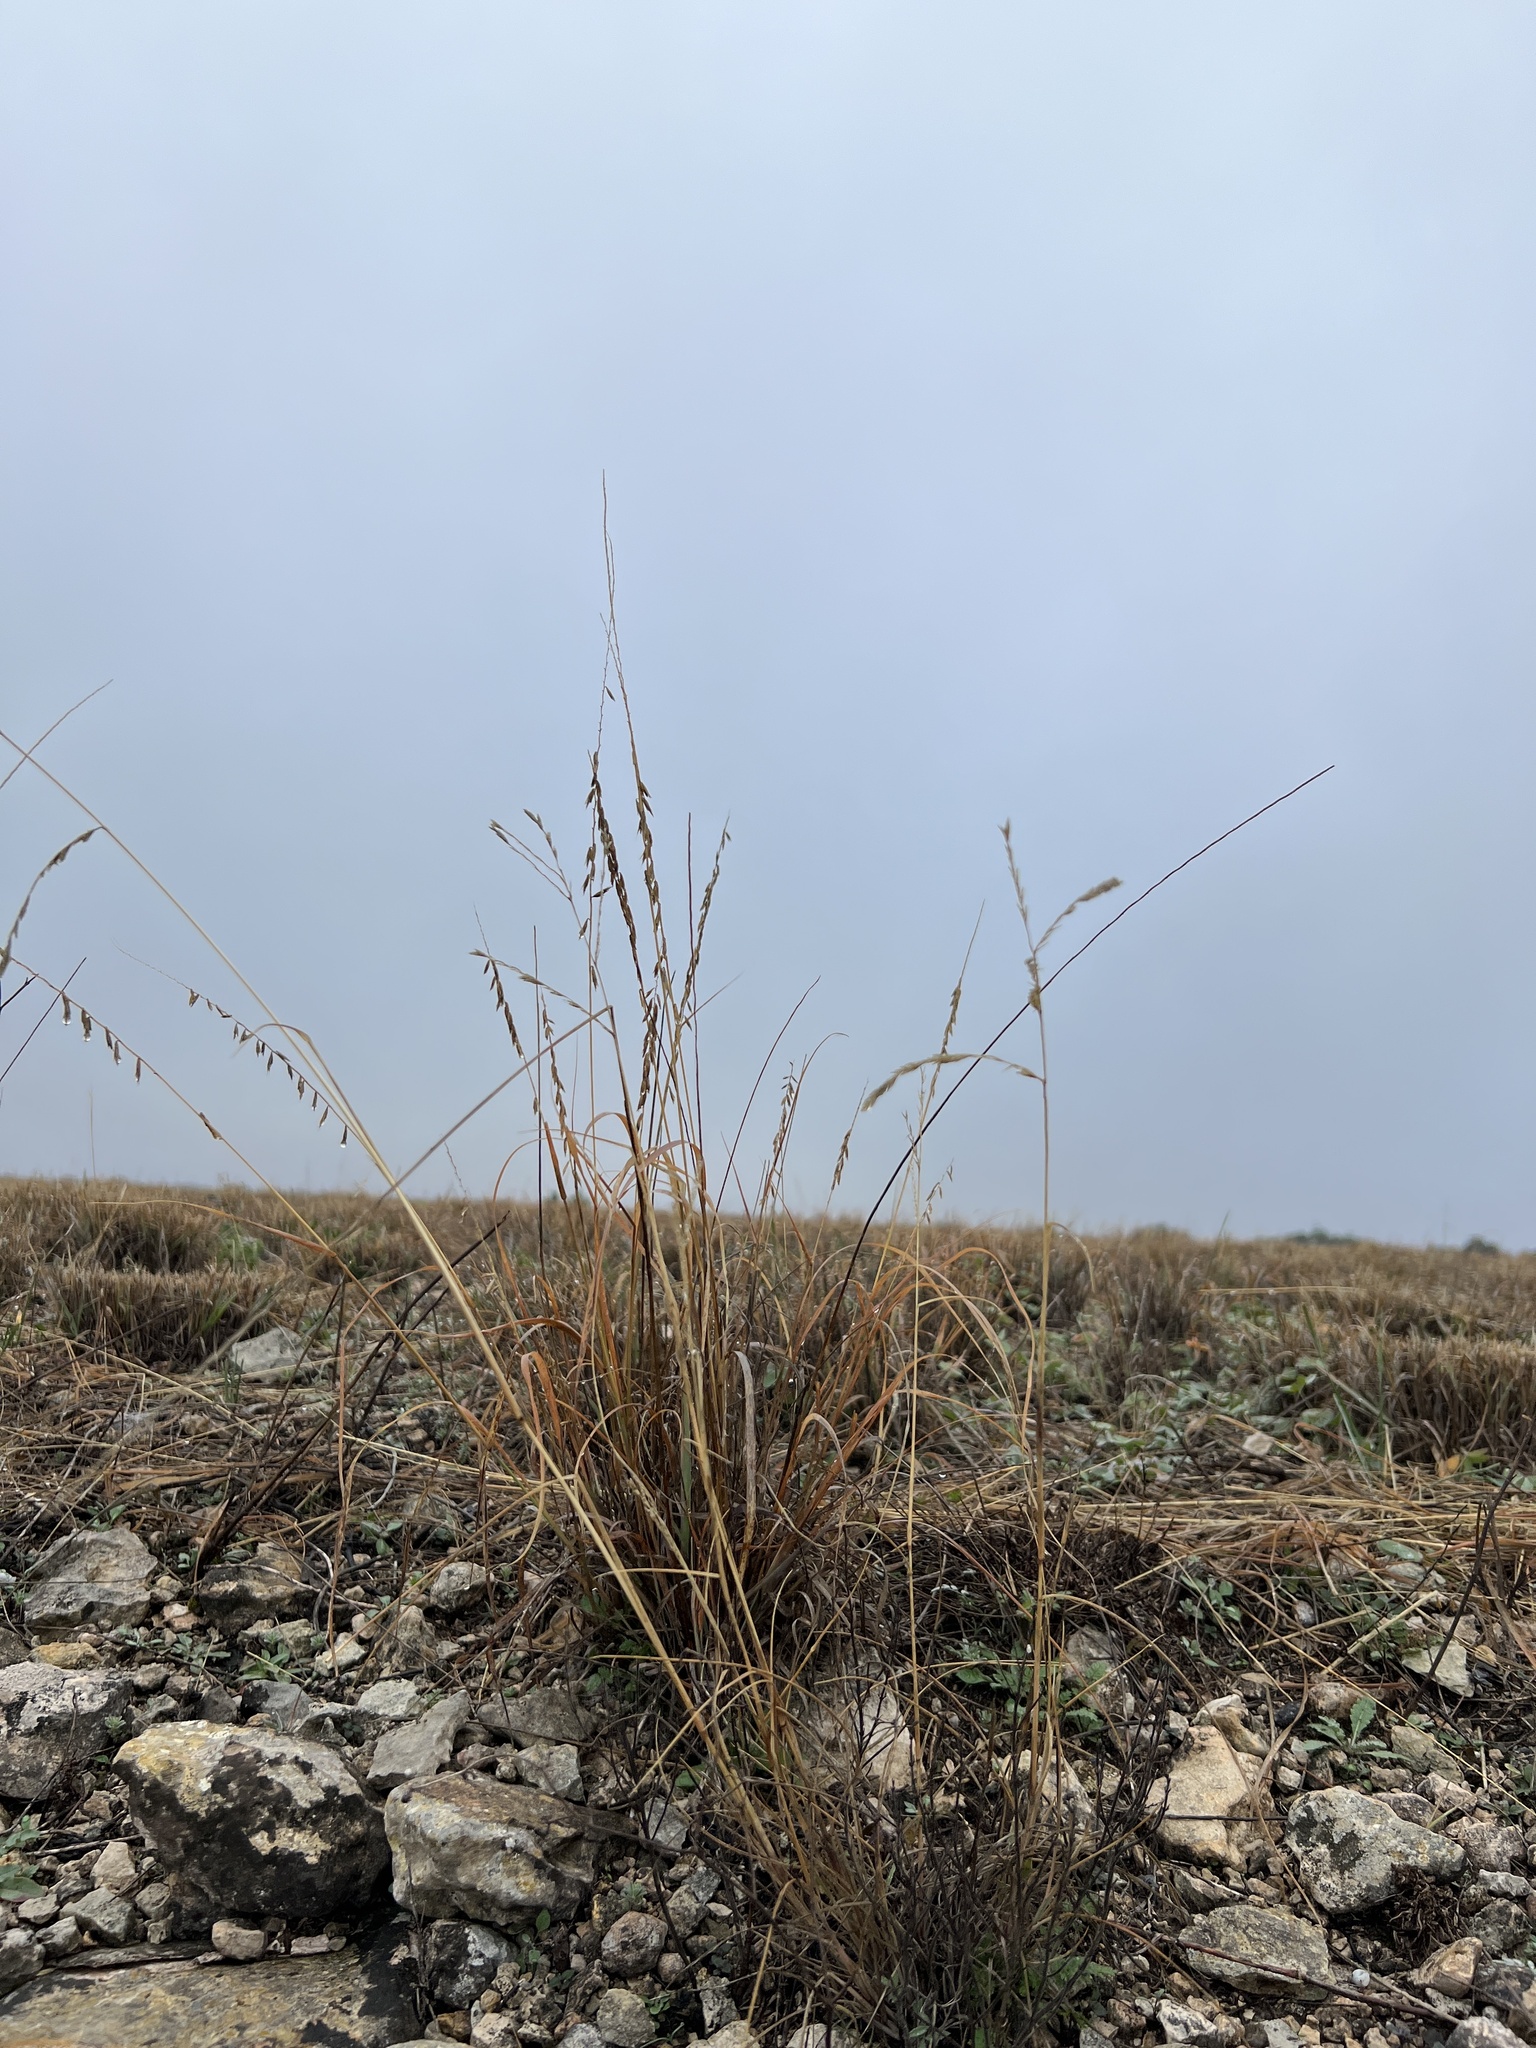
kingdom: Plantae
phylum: Tracheophyta
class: Liliopsida
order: Poales
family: Poaceae
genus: Bouteloua
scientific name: Bouteloua curtipendula
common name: Side-oats grama
